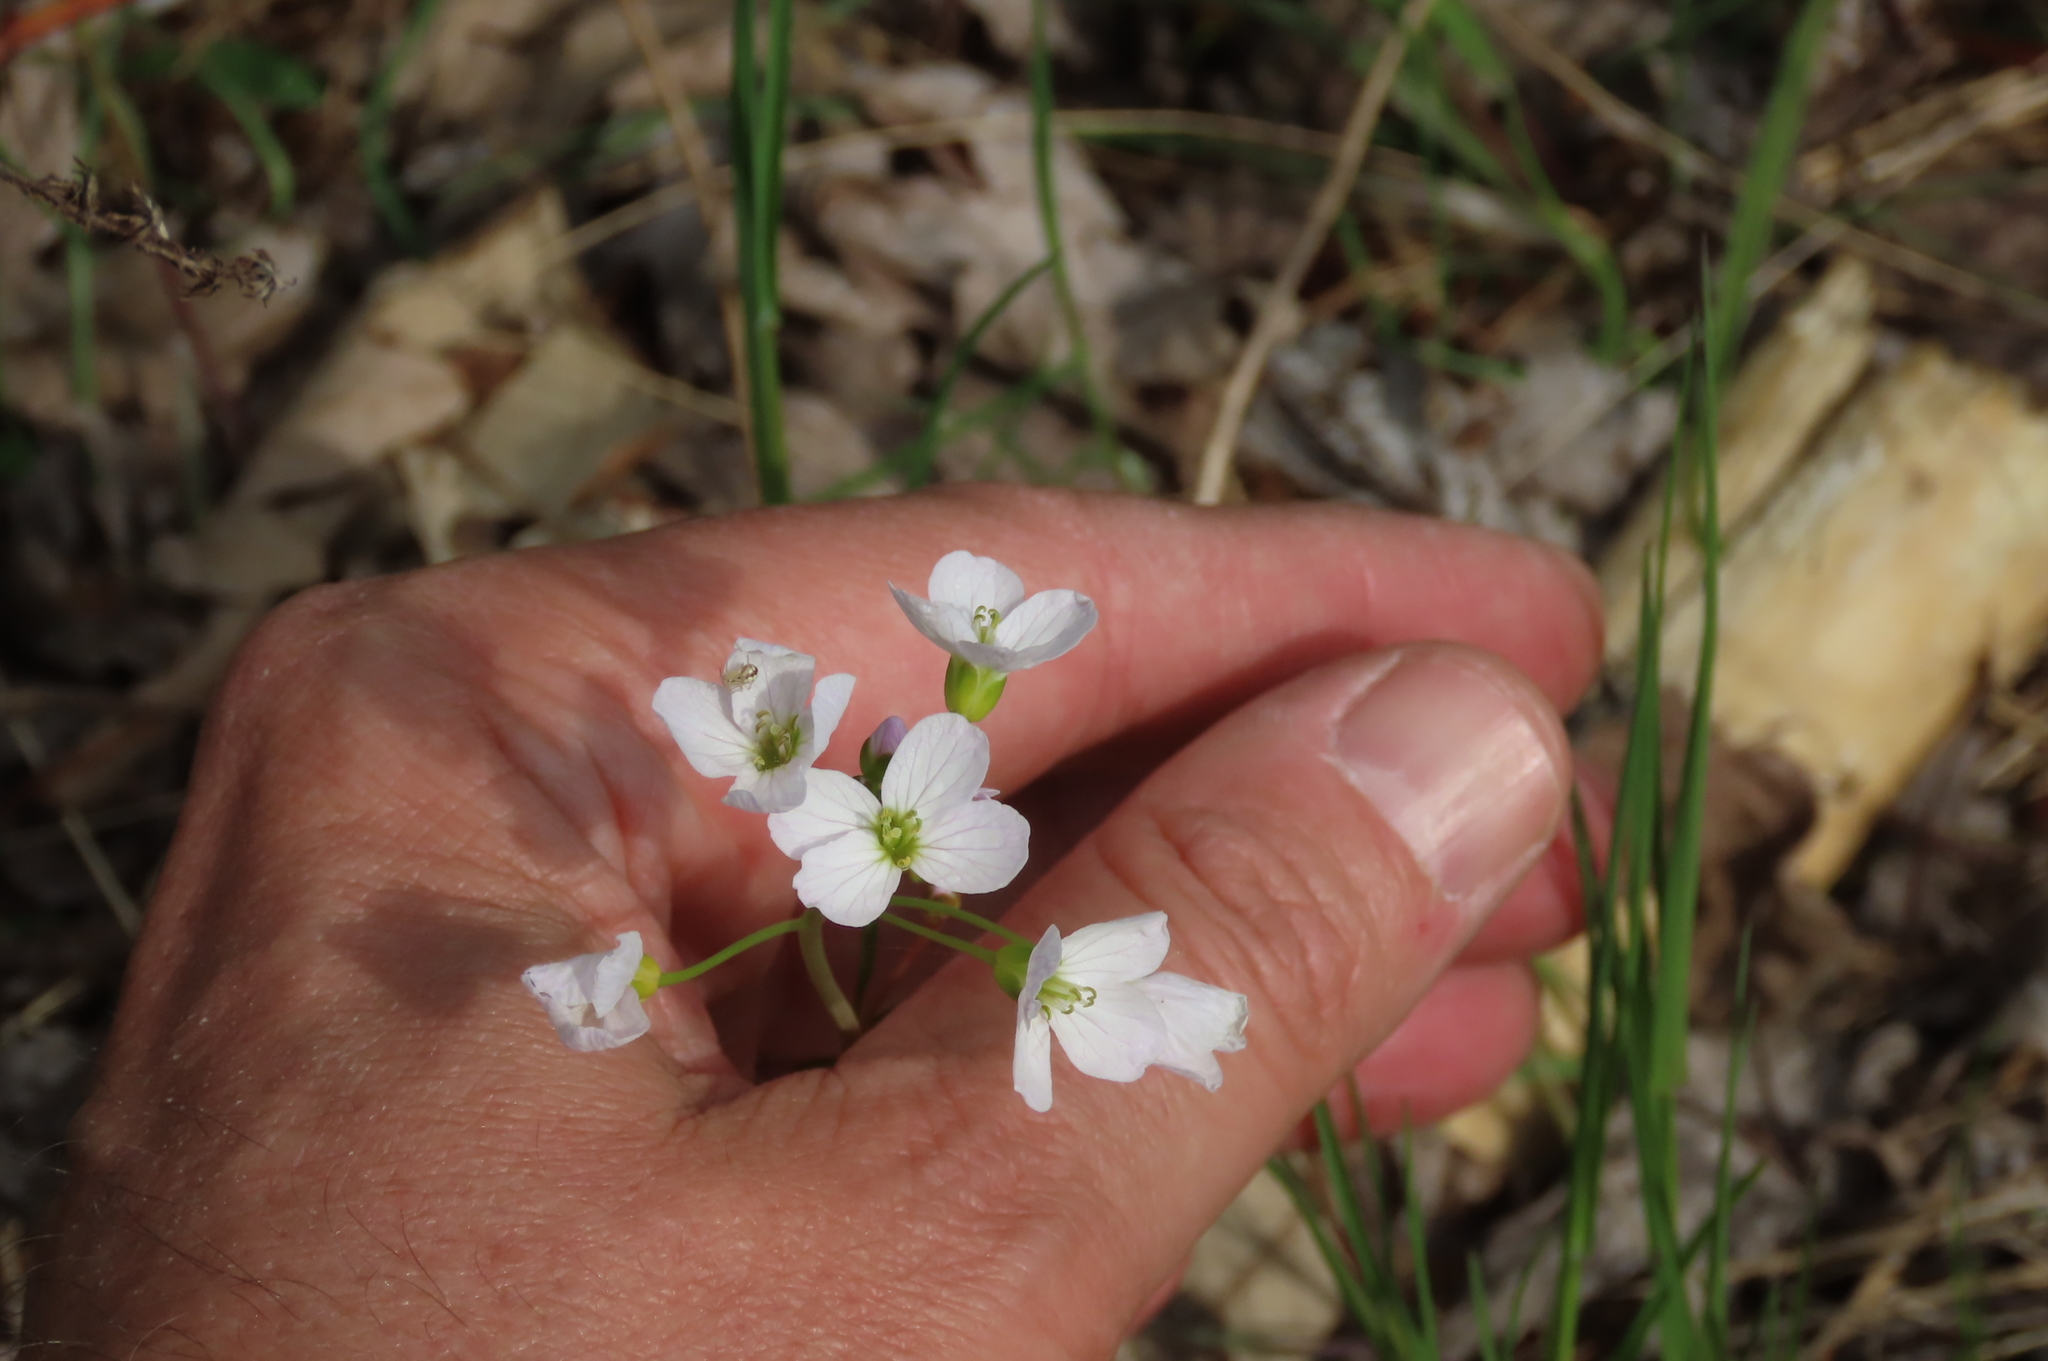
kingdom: Plantae
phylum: Tracheophyta
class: Magnoliopsida
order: Brassicales
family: Brassicaceae
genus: Cardamine
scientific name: Cardamine pratensis
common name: Cuckoo flower
